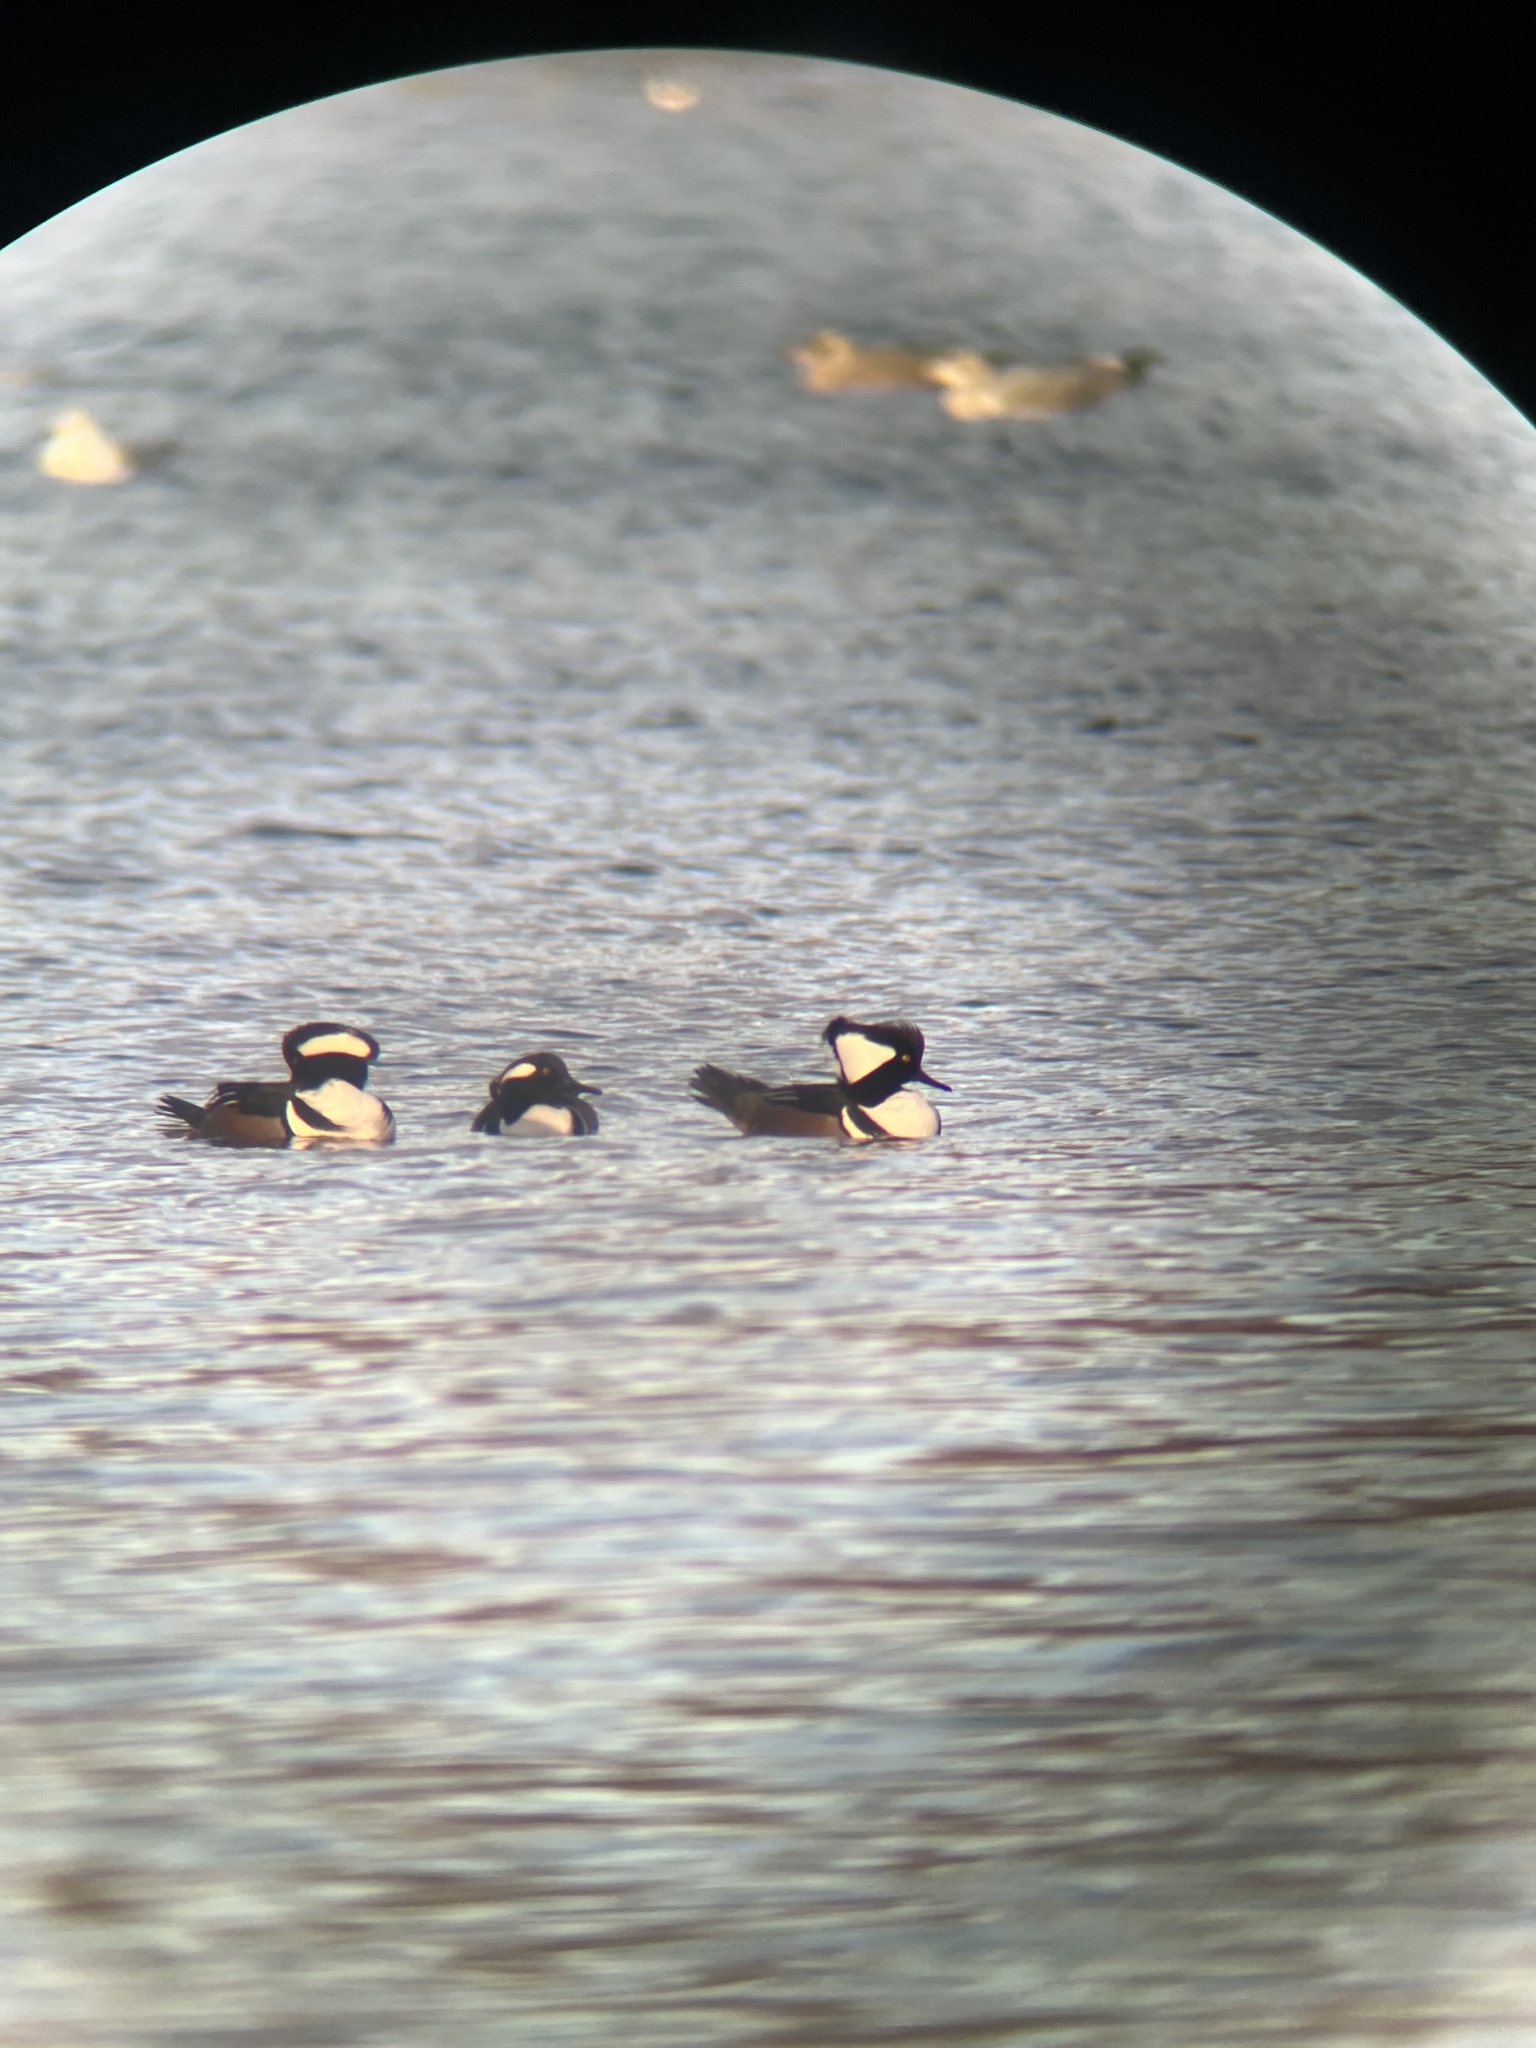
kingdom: Animalia
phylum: Chordata
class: Aves
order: Anseriformes
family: Anatidae
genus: Lophodytes
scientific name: Lophodytes cucullatus
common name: Hooded merganser
